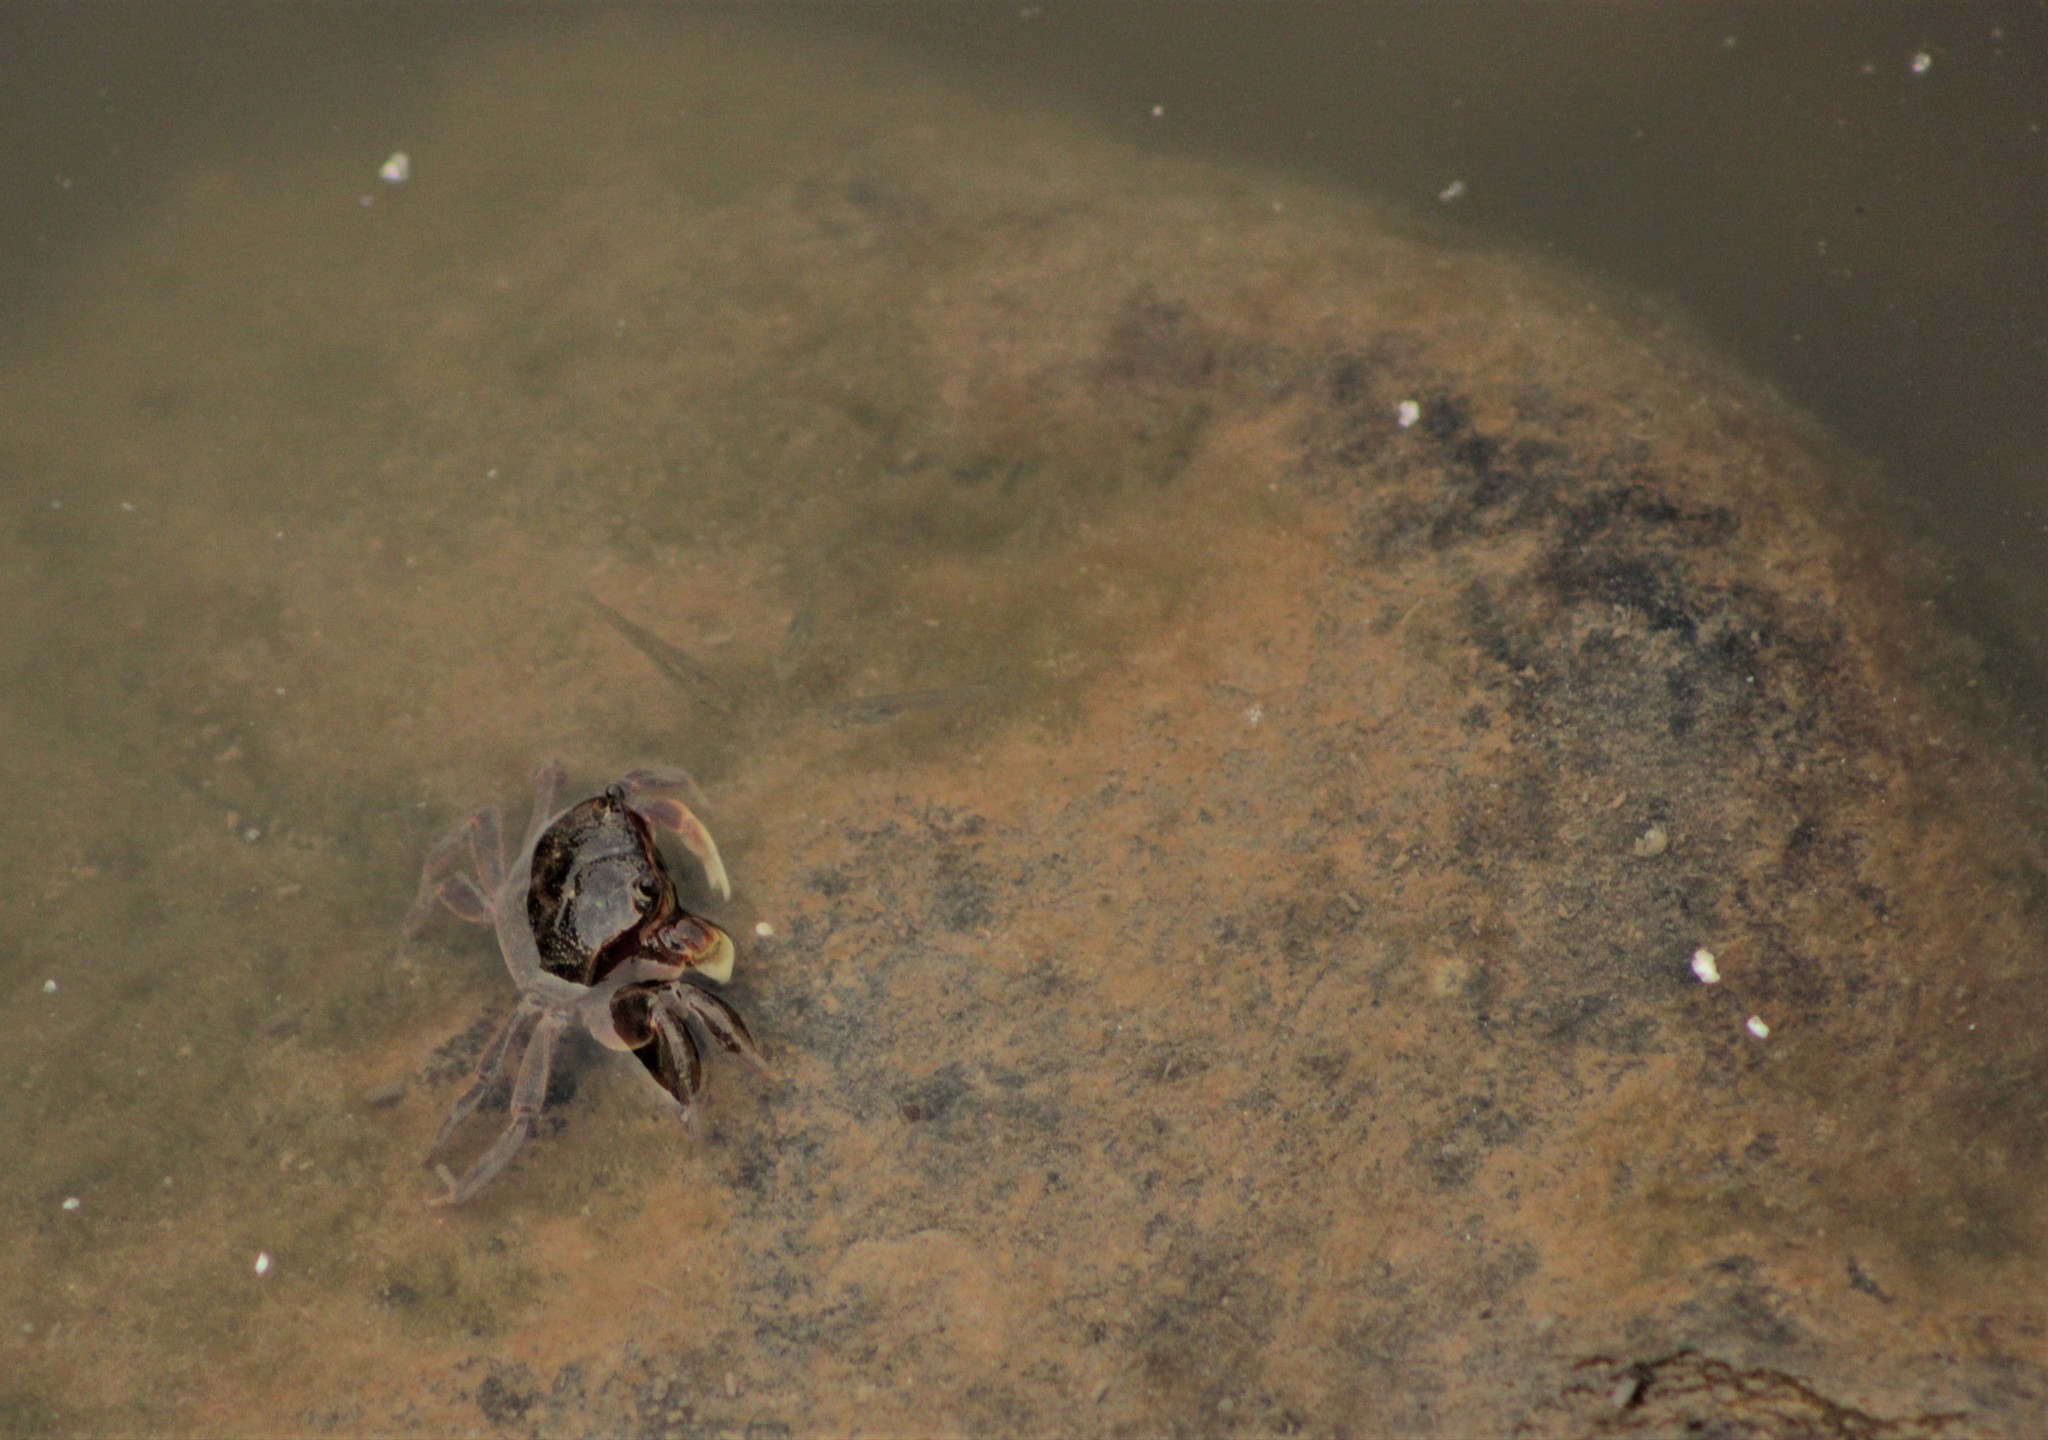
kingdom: Animalia
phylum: Arthropoda
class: Malacostraca
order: Decapoda
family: Varunidae
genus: Neohelice
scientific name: Neohelice granulata
